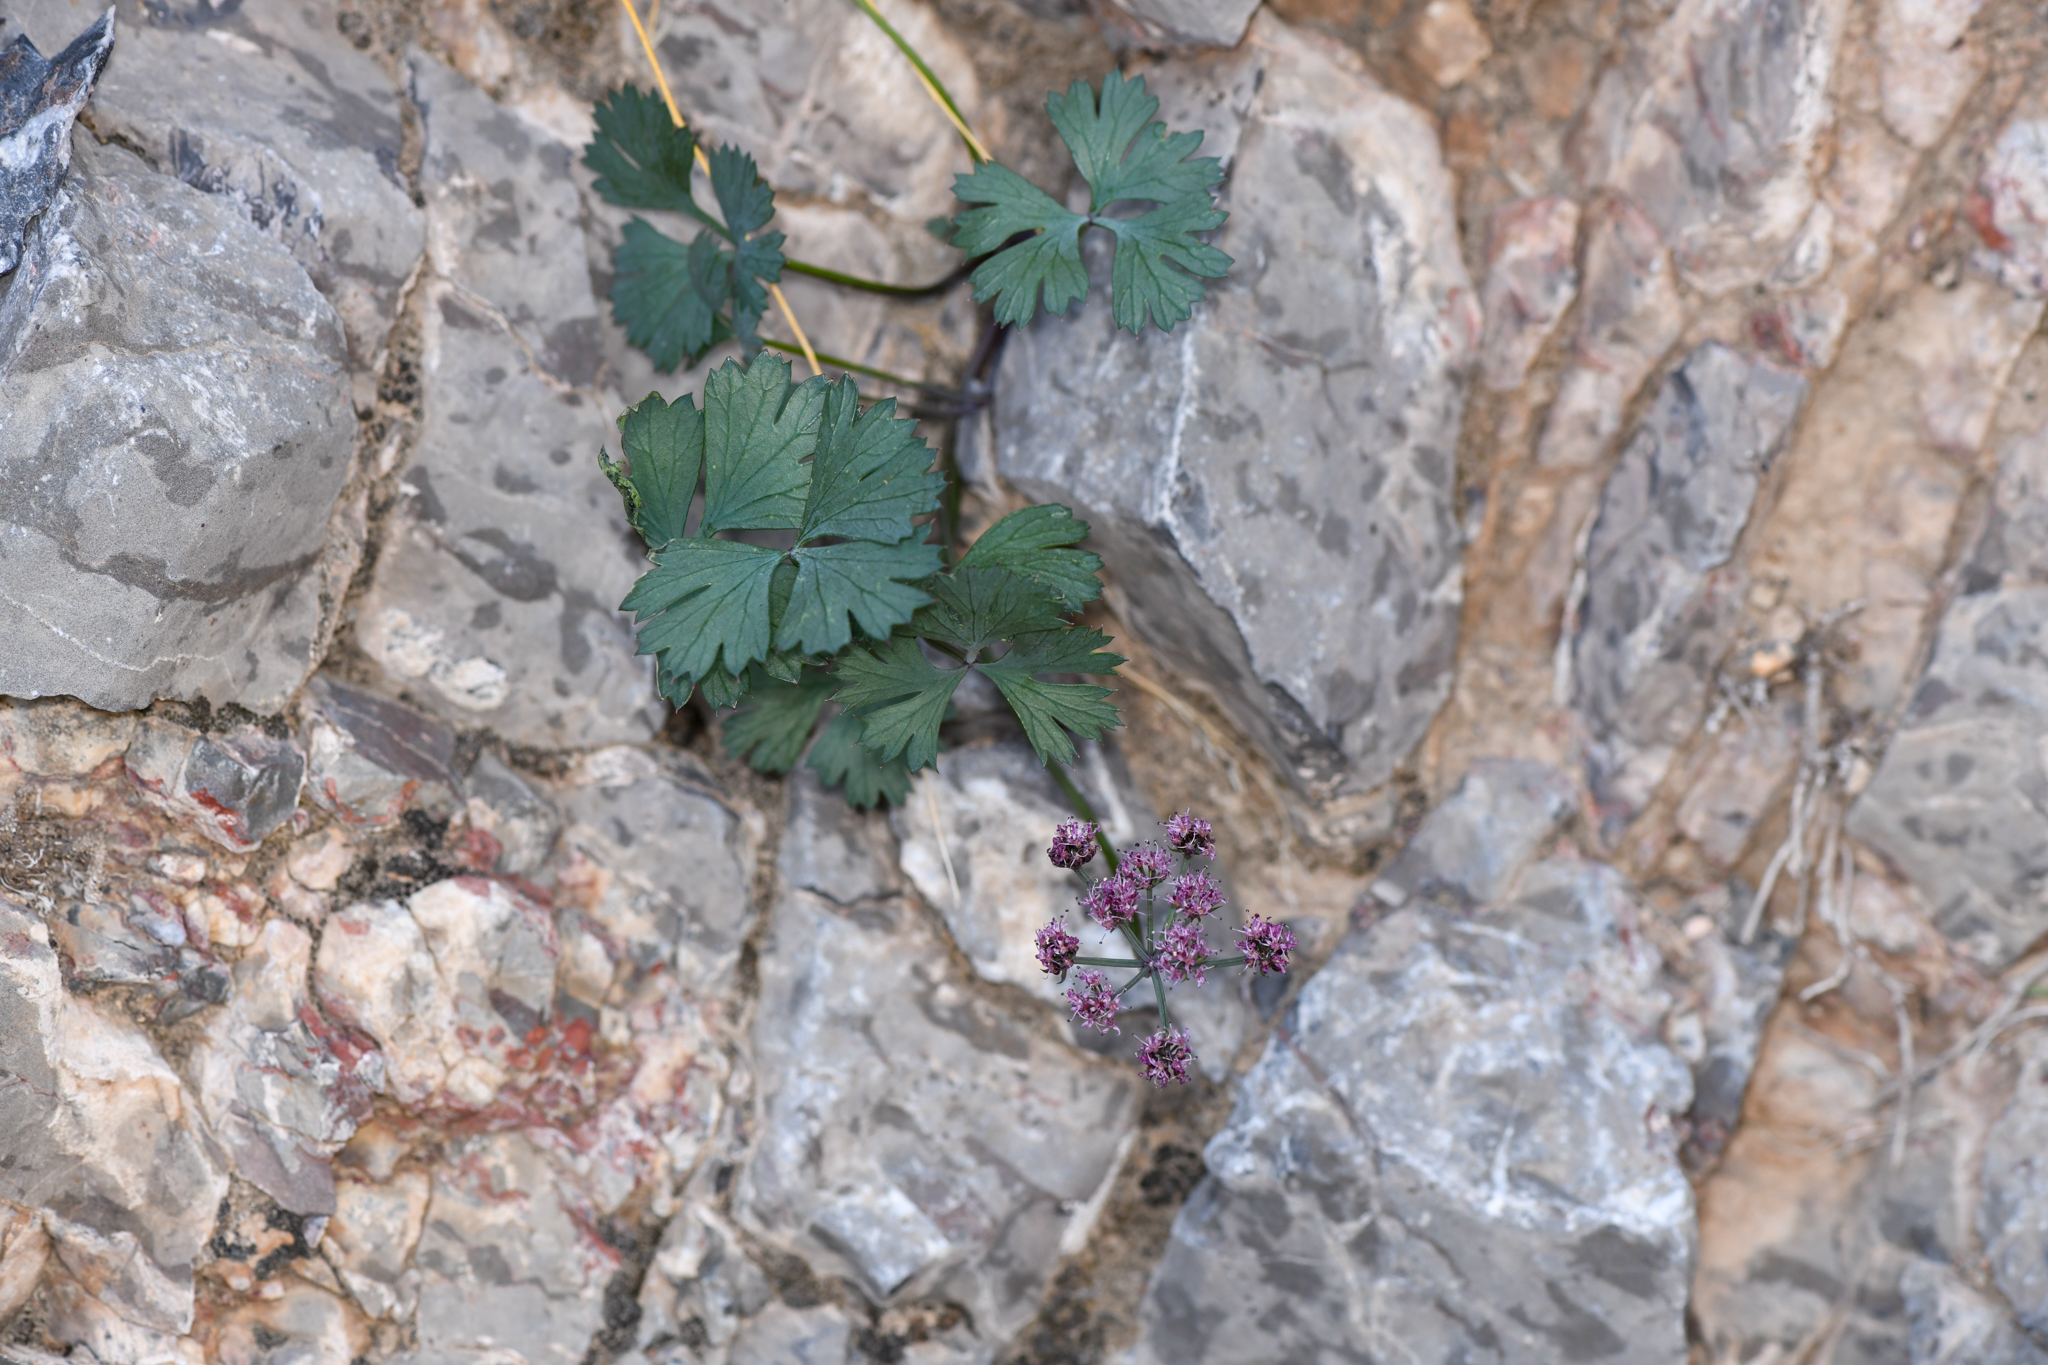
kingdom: Plantae
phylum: Tracheophyta
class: Magnoliopsida
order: Apiales
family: Apiaceae
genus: Cymopterus
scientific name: Cymopterus gilmanii
